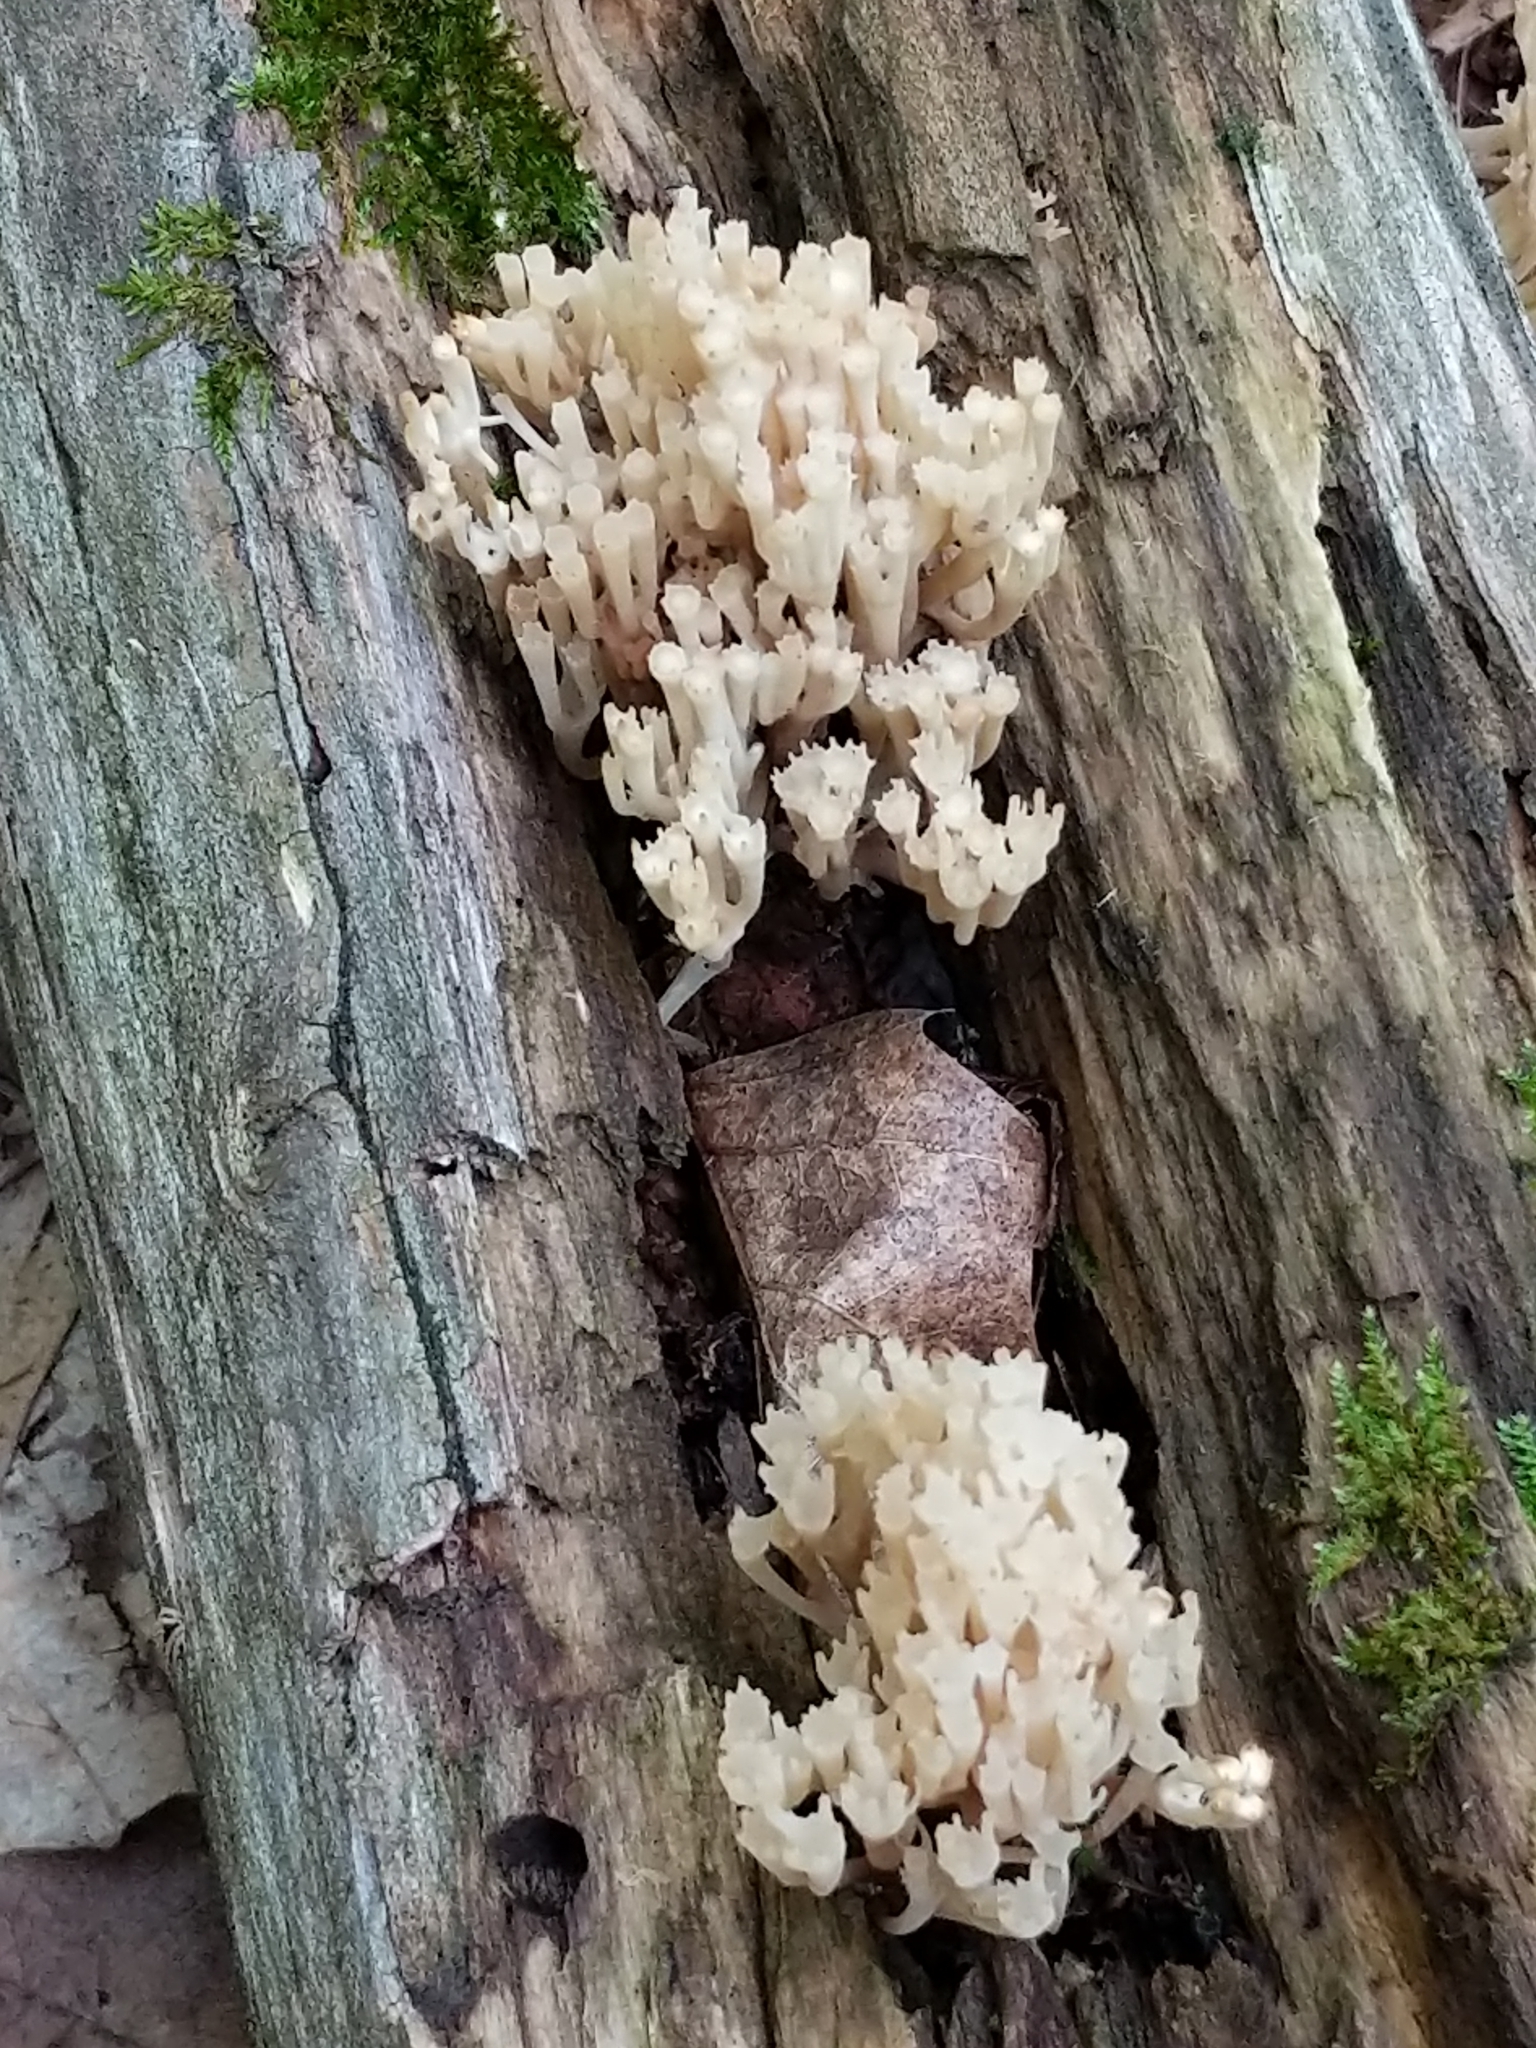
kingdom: Fungi
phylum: Basidiomycota
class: Agaricomycetes
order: Russulales
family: Auriscalpiaceae
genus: Artomyces
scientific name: Artomyces pyxidatus
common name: Crown-tipped coral fungus
